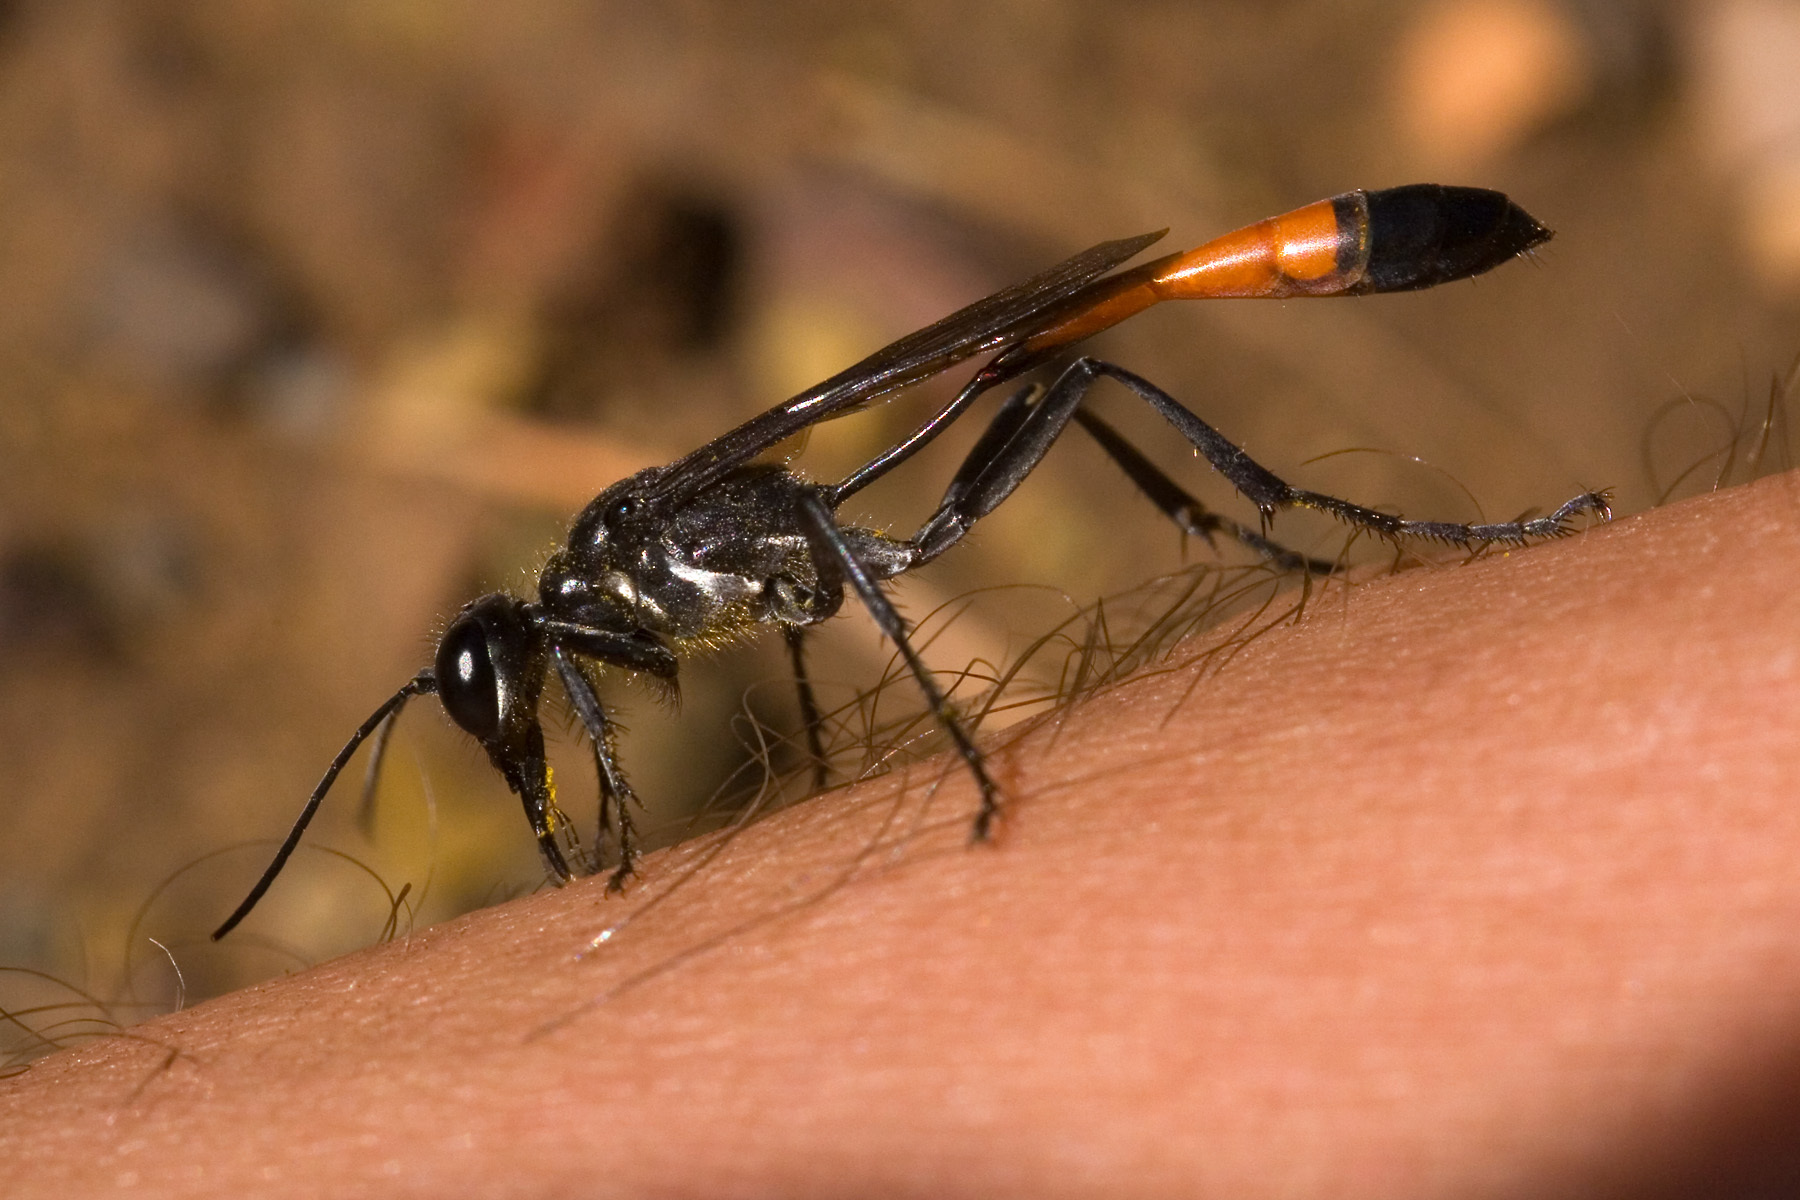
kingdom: Animalia
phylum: Arthropoda
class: Insecta
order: Hymenoptera
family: Sphecidae
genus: Ammophila
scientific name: Ammophila
